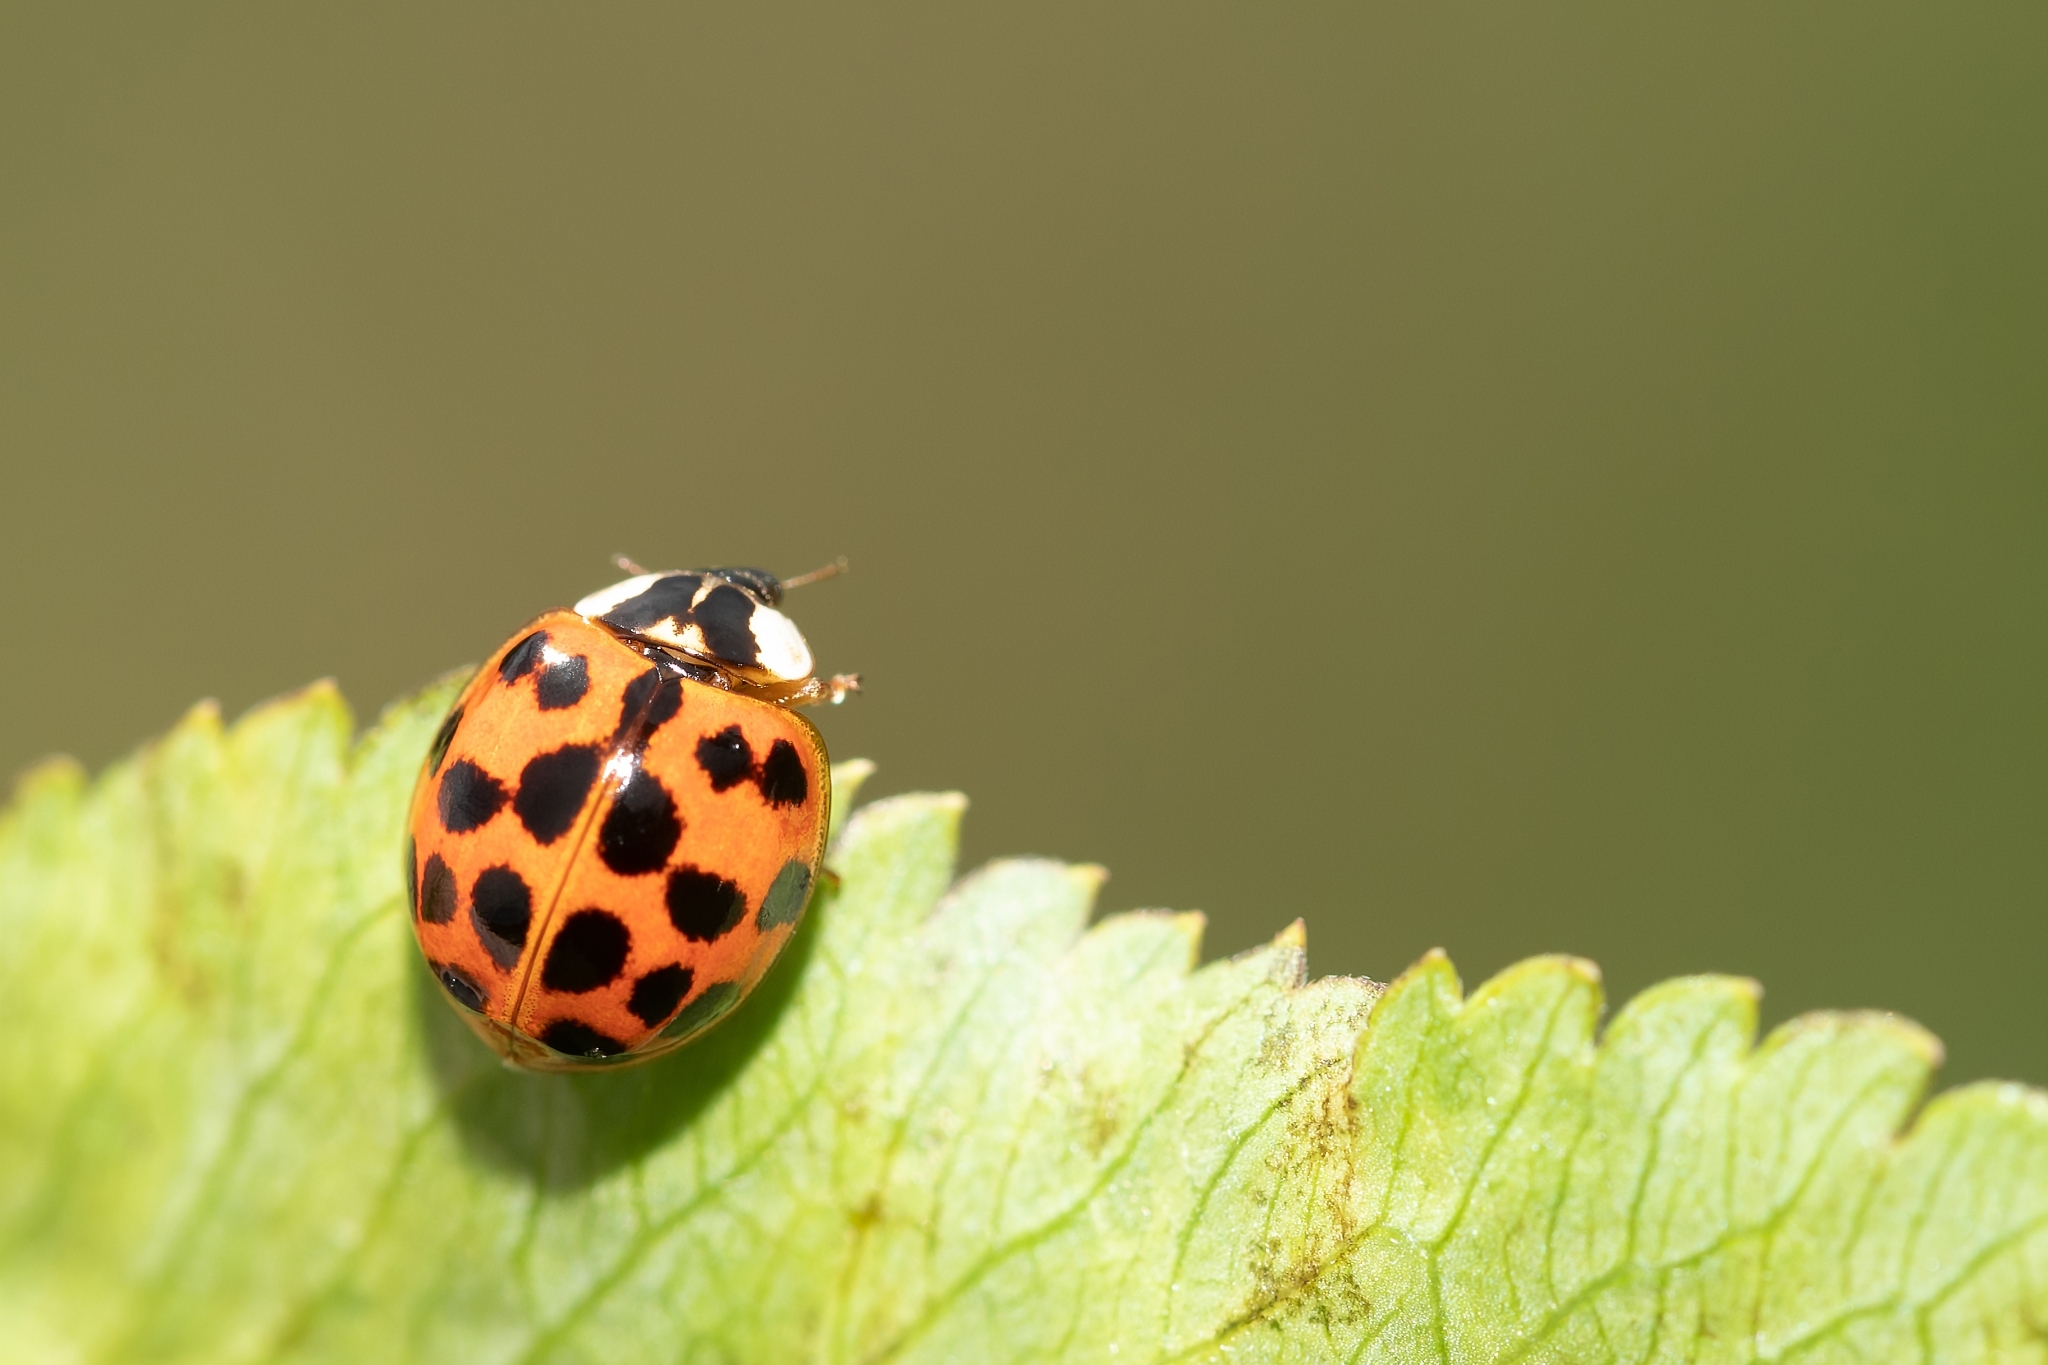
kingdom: Animalia
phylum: Arthropoda
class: Insecta
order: Coleoptera
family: Coccinellidae
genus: Harmonia
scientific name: Harmonia axyridis
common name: Harlequin ladybird
